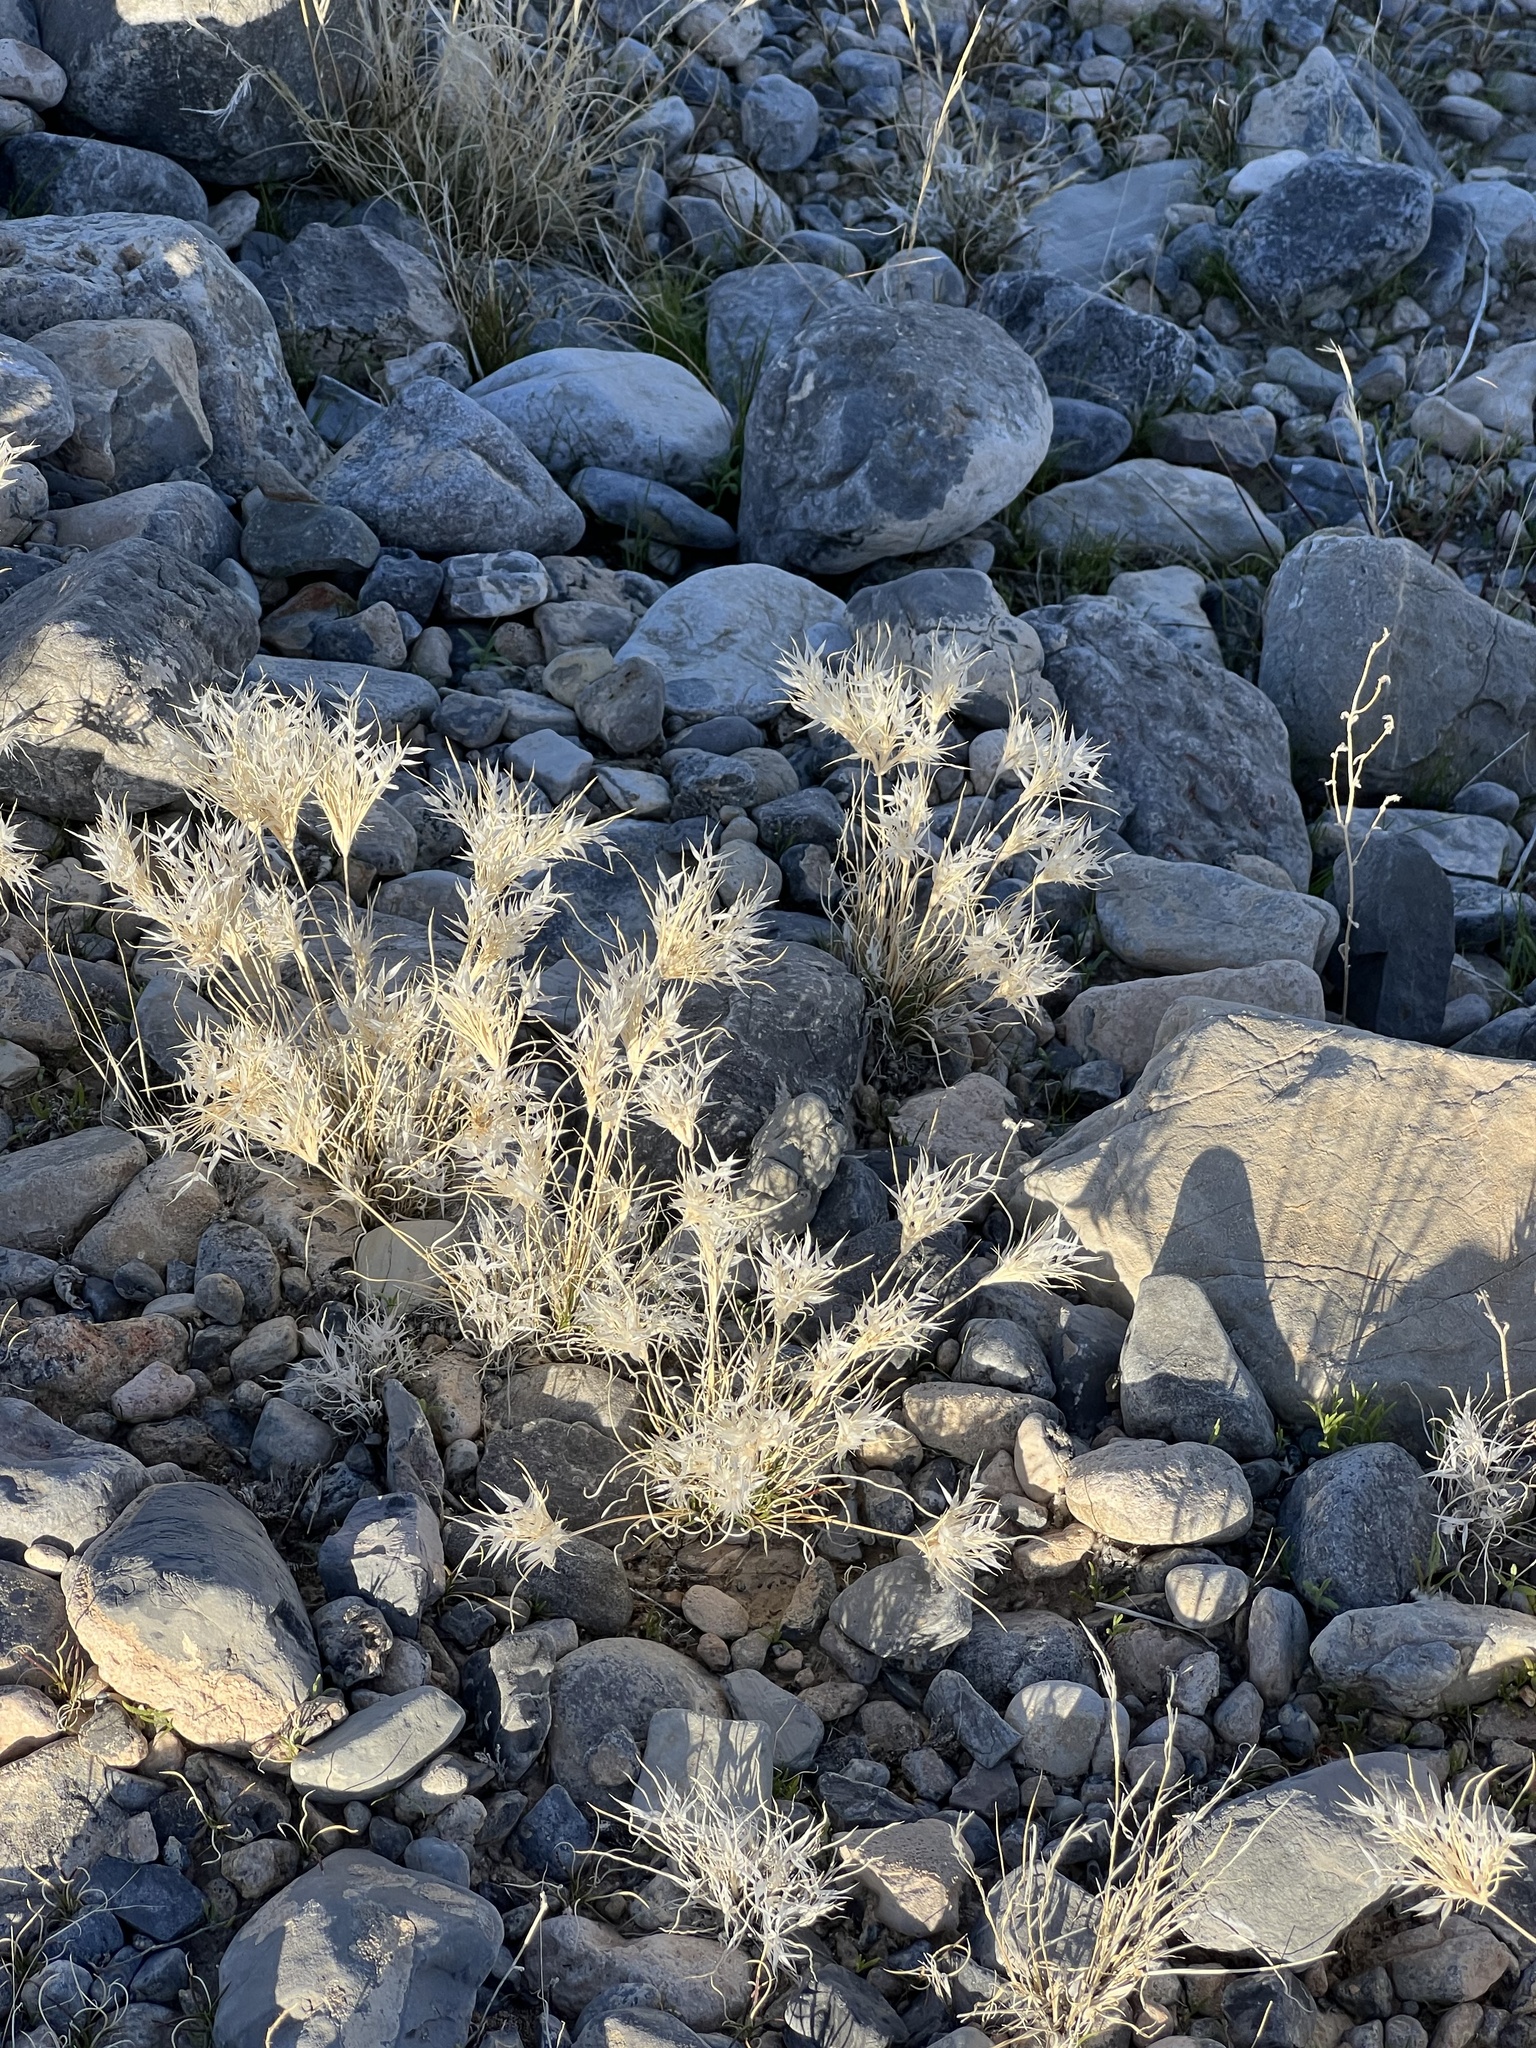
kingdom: Plantae
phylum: Tracheophyta
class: Liliopsida
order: Poales
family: Poaceae
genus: Dasyochloa
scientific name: Dasyochloa pulchella
